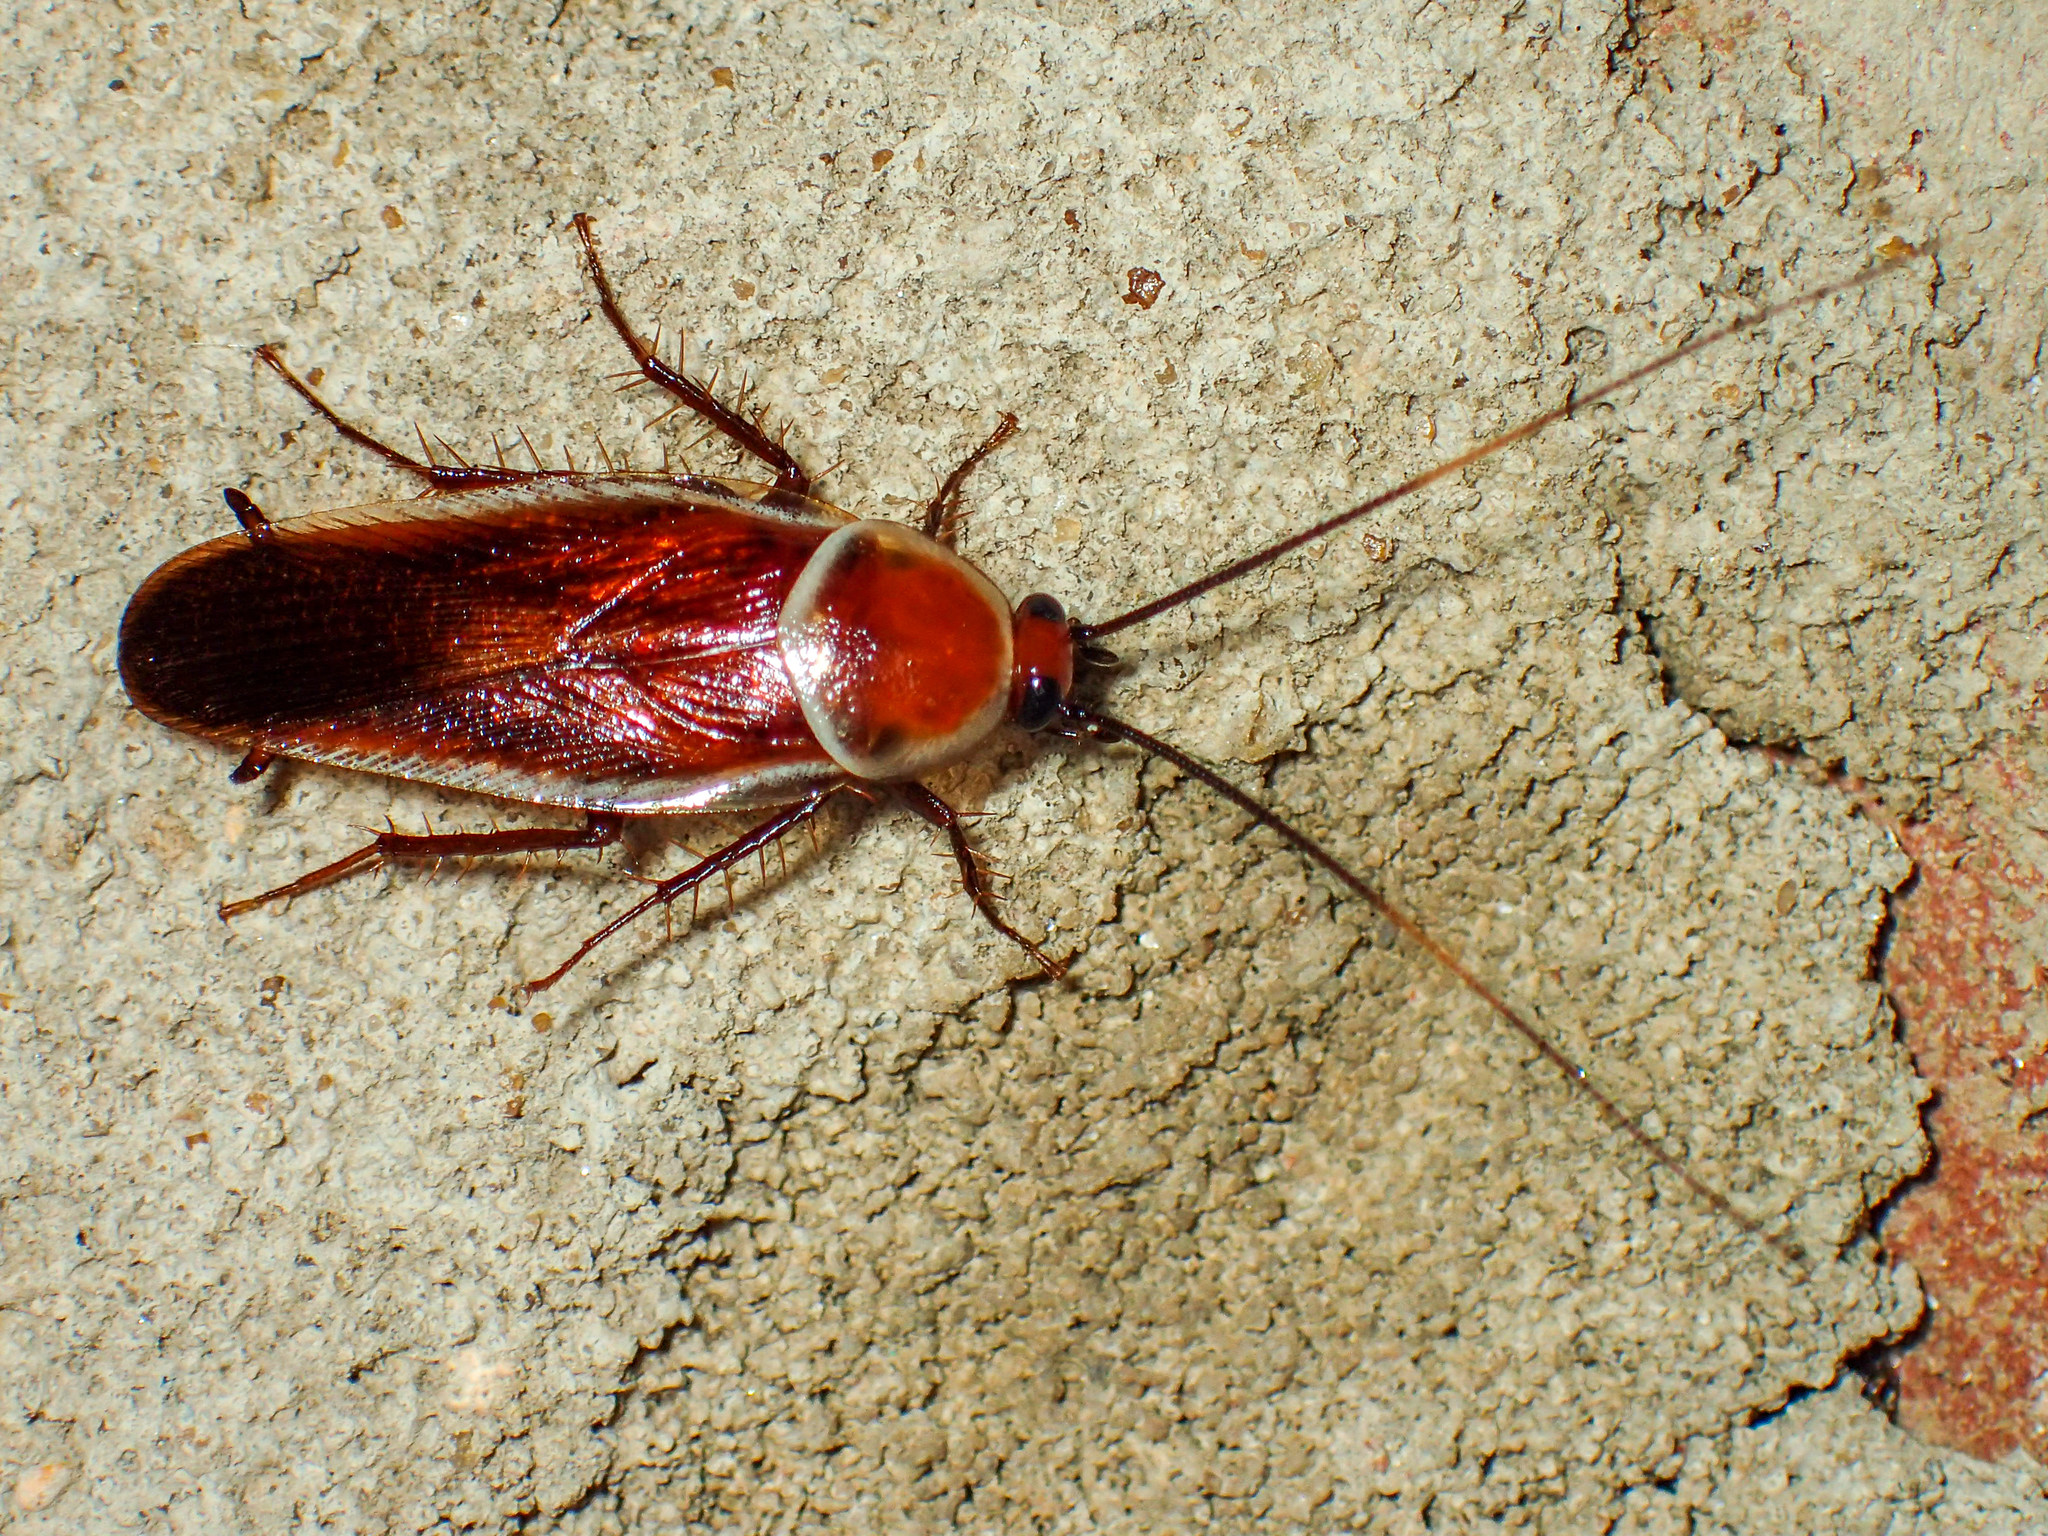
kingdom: Animalia
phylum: Arthropoda
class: Insecta
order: Blattodea
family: Ectobiidae
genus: Pseudomops
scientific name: Pseudomops septentrionalis
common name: Pale-bordered field cockroach
